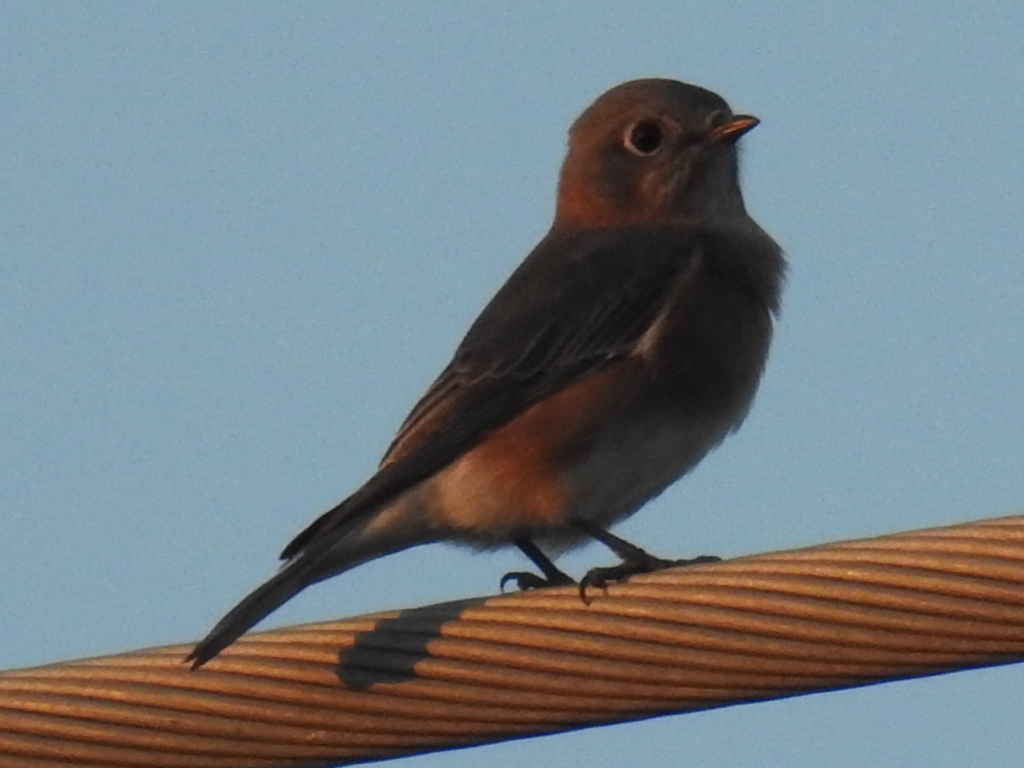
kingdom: Animalia
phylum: Chordata
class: Aves
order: Passeriformes
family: Turdidae
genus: Sialia
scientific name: Sialia sialis
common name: Eastern bluebird
